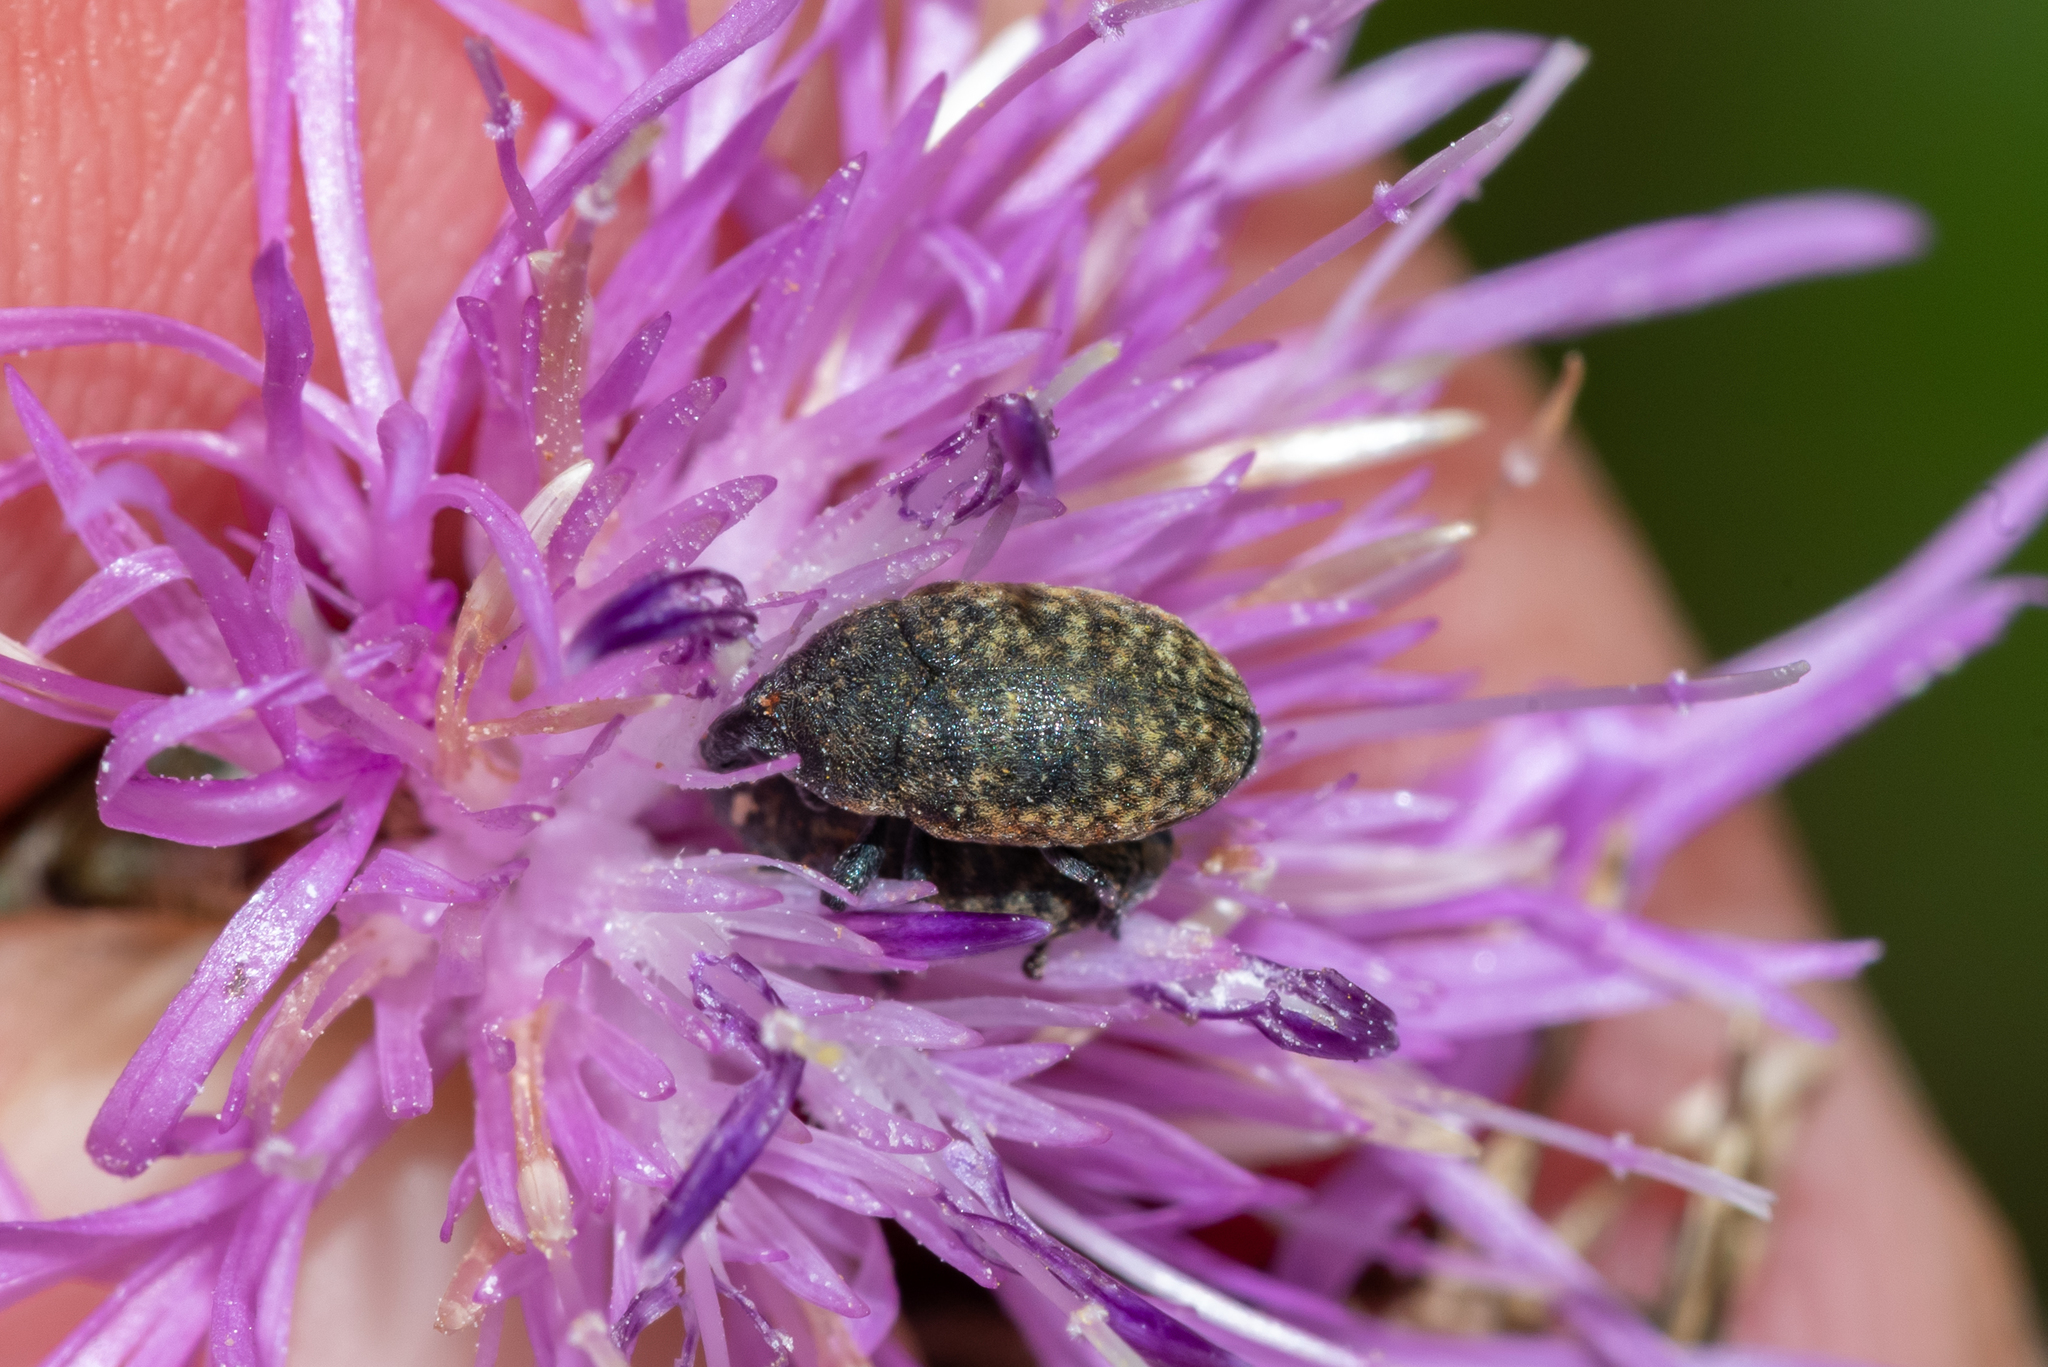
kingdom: Animalia
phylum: Arthropoda
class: Insecta
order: Coleoptera
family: Curculionidae
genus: Larinus
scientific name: Larinus obtusus
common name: Weevil
